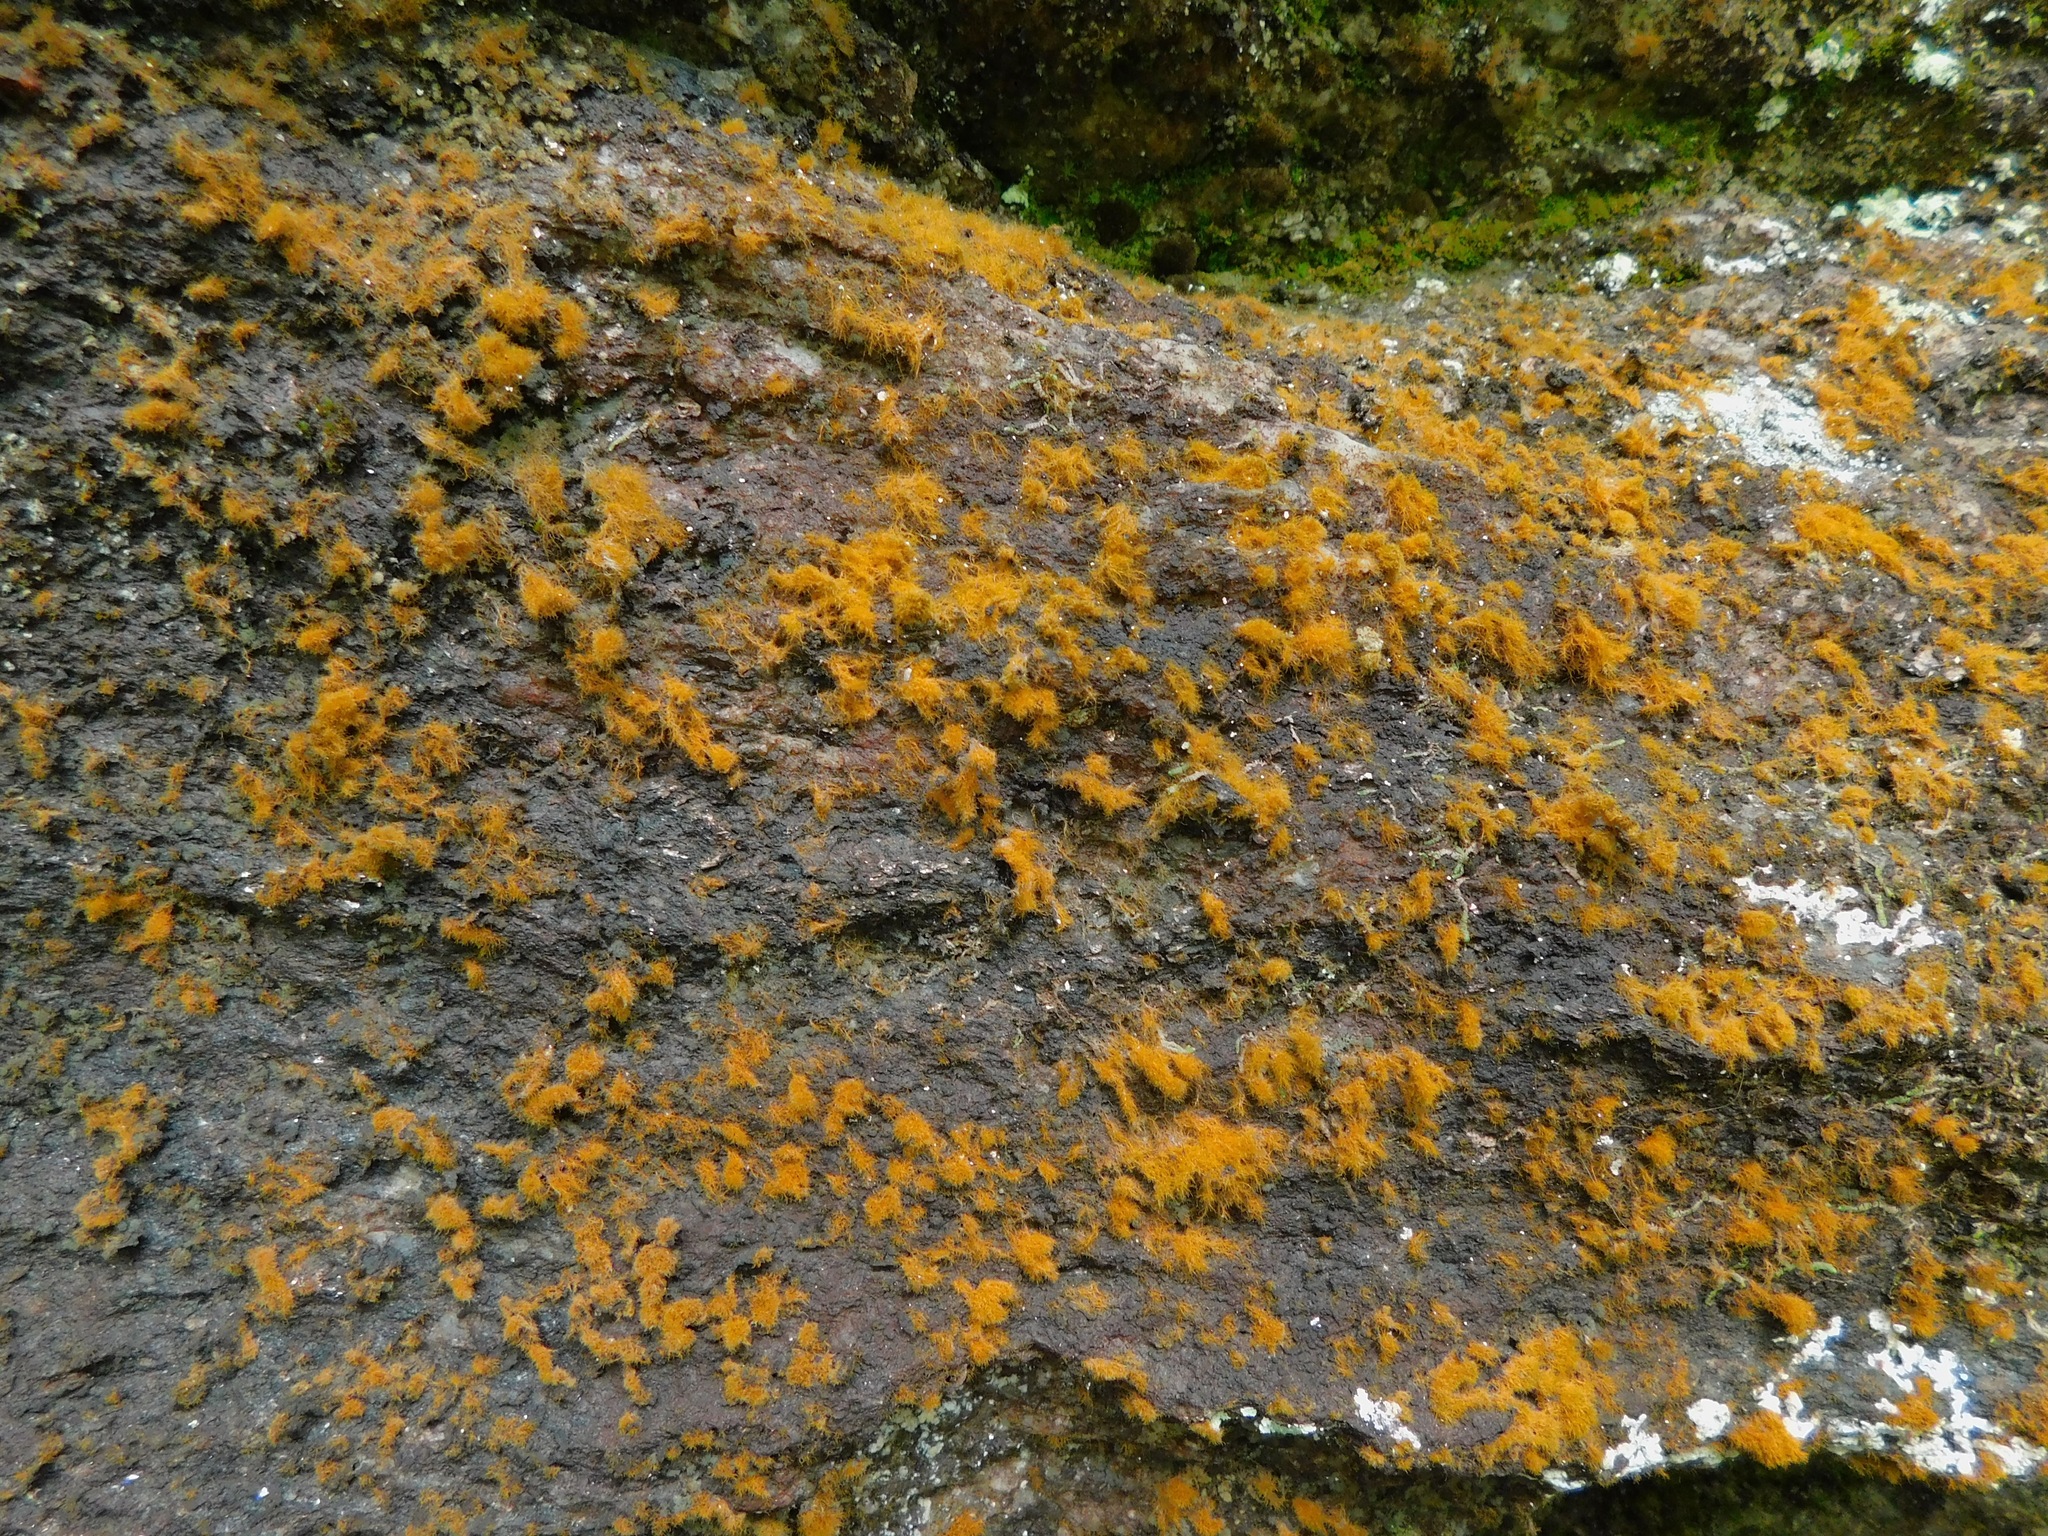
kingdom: Plantae
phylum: Chlorophyta
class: Ulvophyceae
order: Trentepohliales
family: Trentepohliaceae
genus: Trentepohlia
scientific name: Trentepohlia aurea
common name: Orange rock hair
